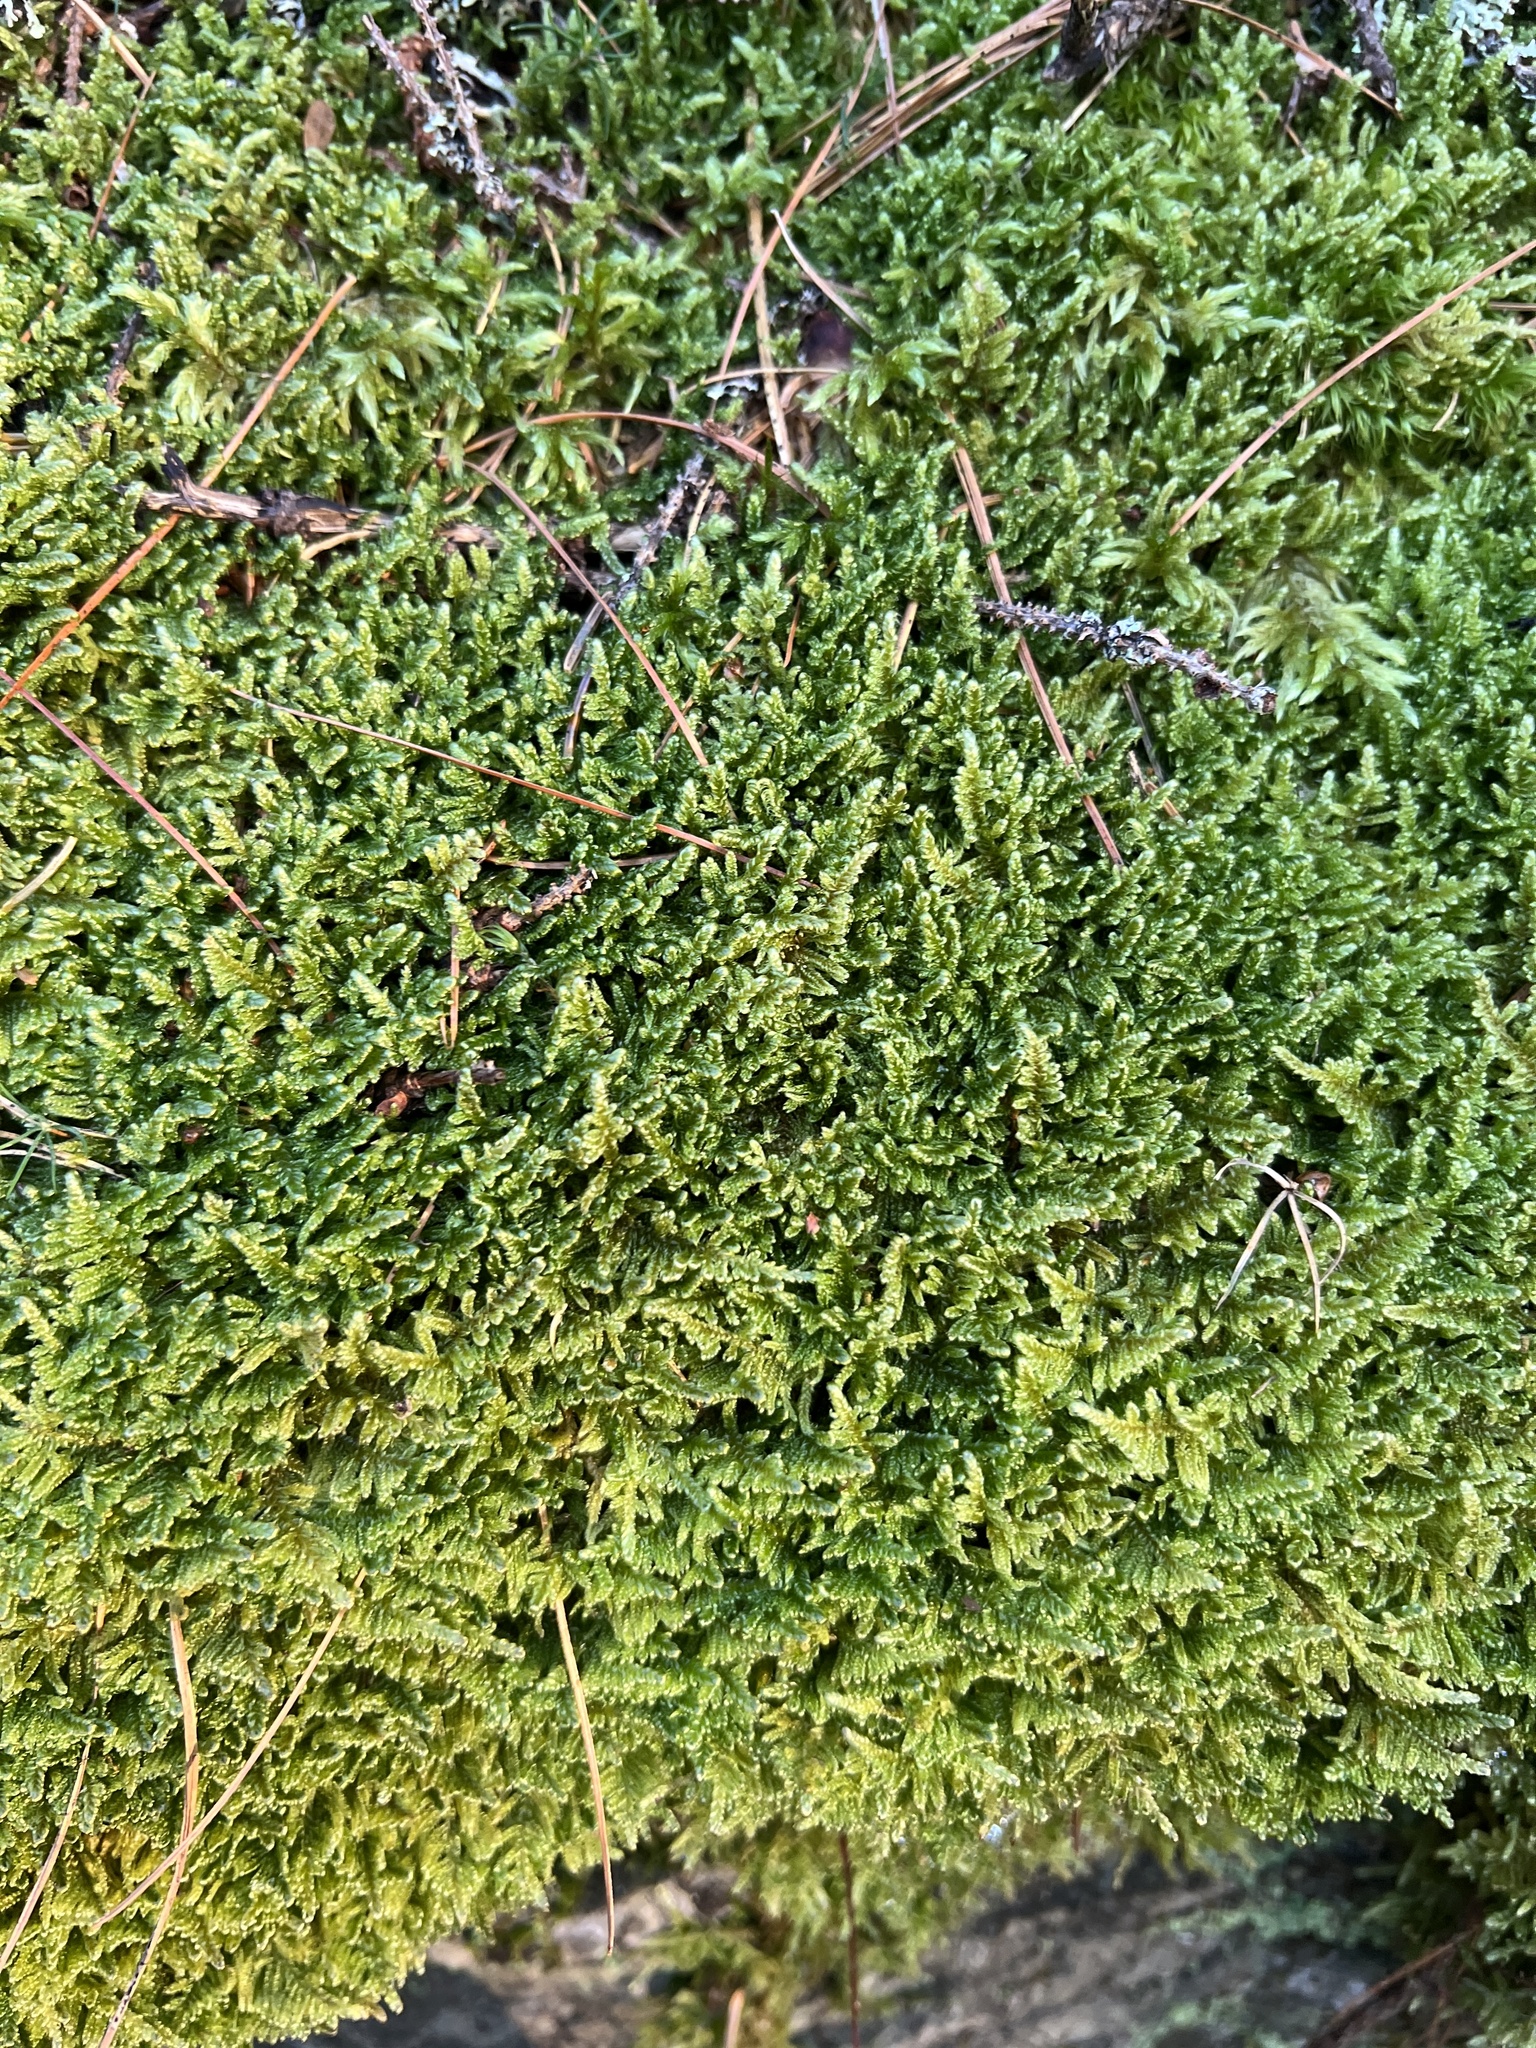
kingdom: Plantae
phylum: Bryophyta
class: Bryopsida
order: Hypnales
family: Callicladiaceae
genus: Callicladium
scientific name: Callicladium imponens
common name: Brocade moss
